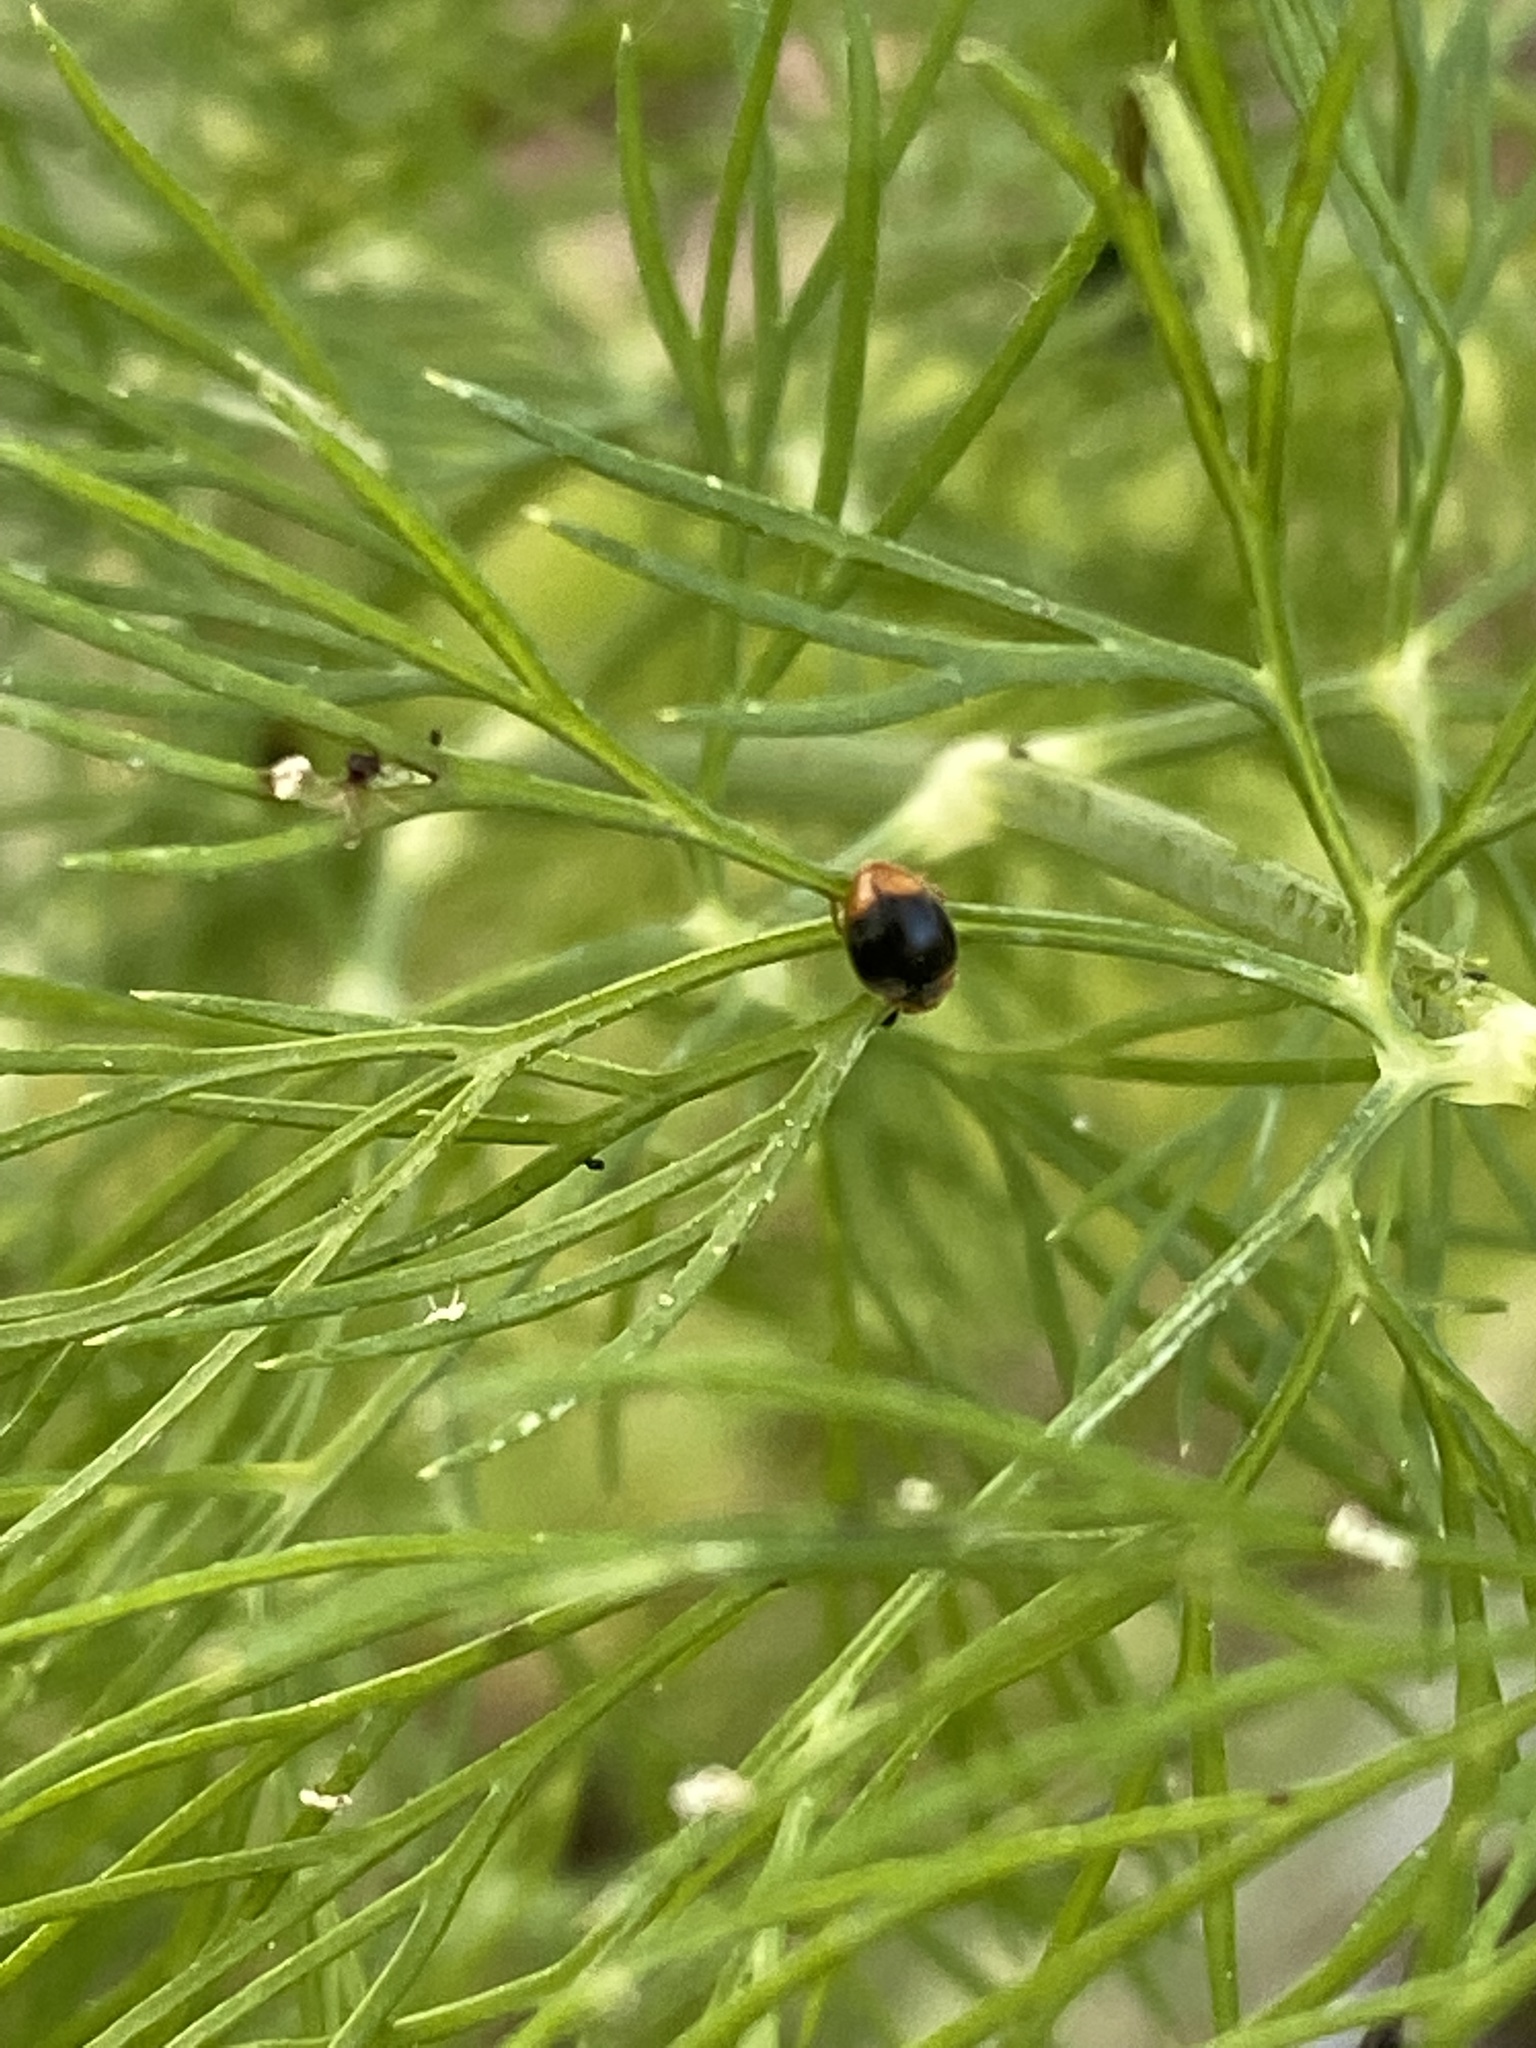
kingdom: Animalia
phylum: Arthropoda
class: Insecta
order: Coleoptera
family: Coccinellidae
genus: Cryptolaemus
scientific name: Cryptolaemus montrouzieri
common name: Mealybug destroyer
